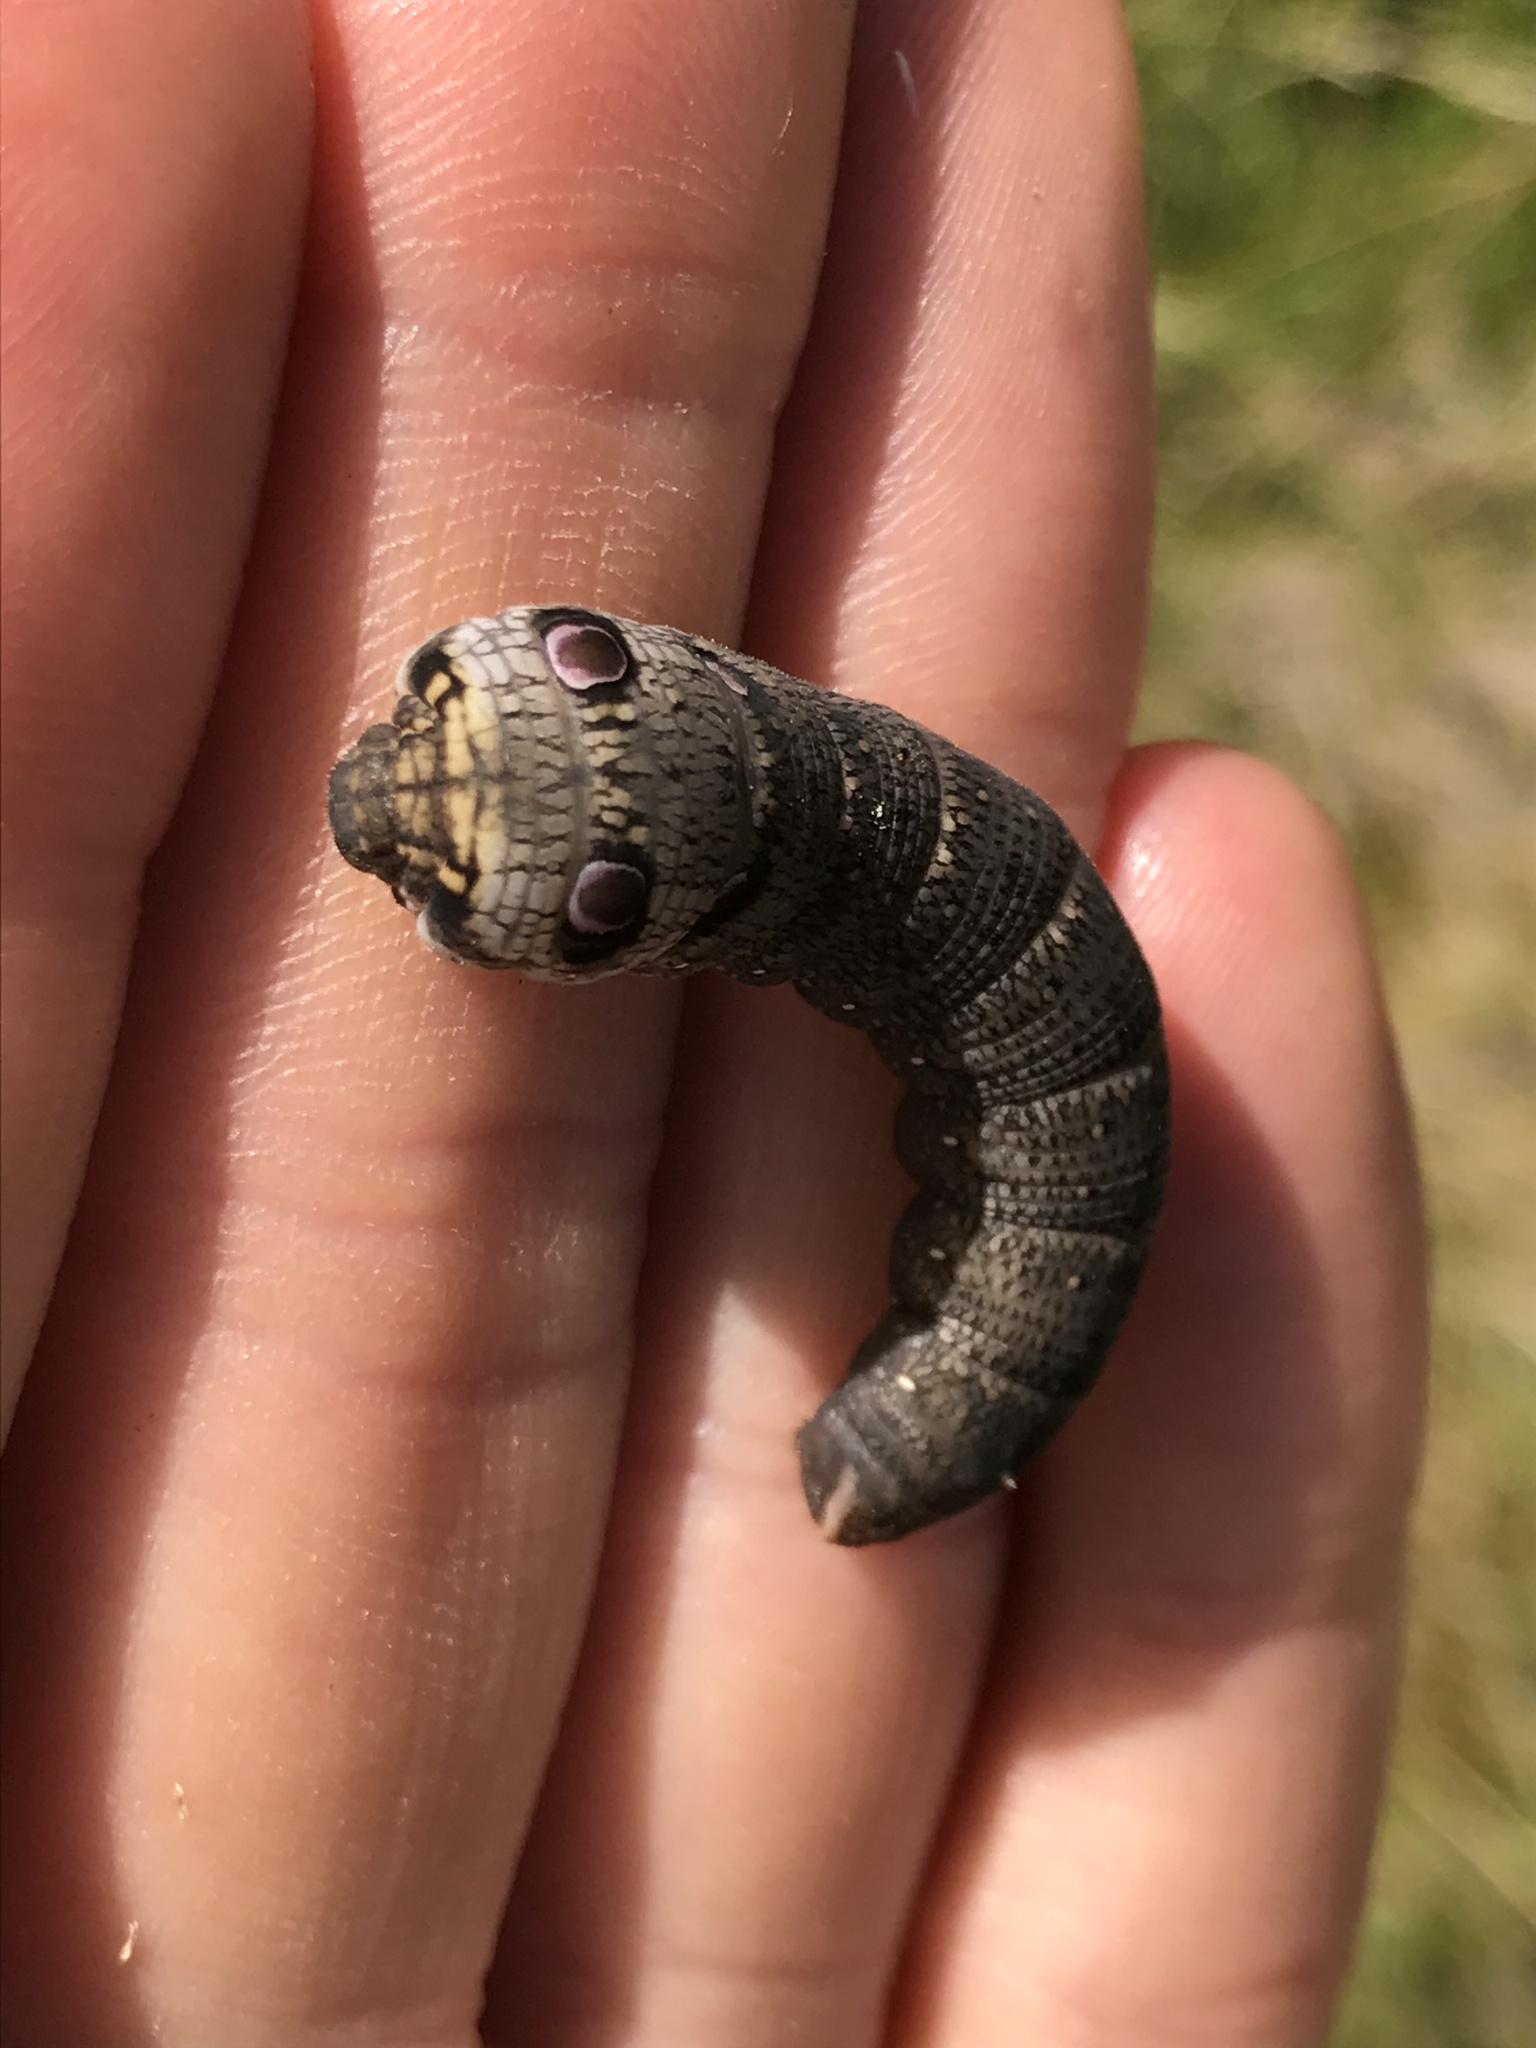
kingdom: Animalia
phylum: Arthropoda
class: Insecta
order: Lepidoptera
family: Sphingidae
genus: Deilephila
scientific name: Deilephila porcellus
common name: Small elephant hawk-moth
